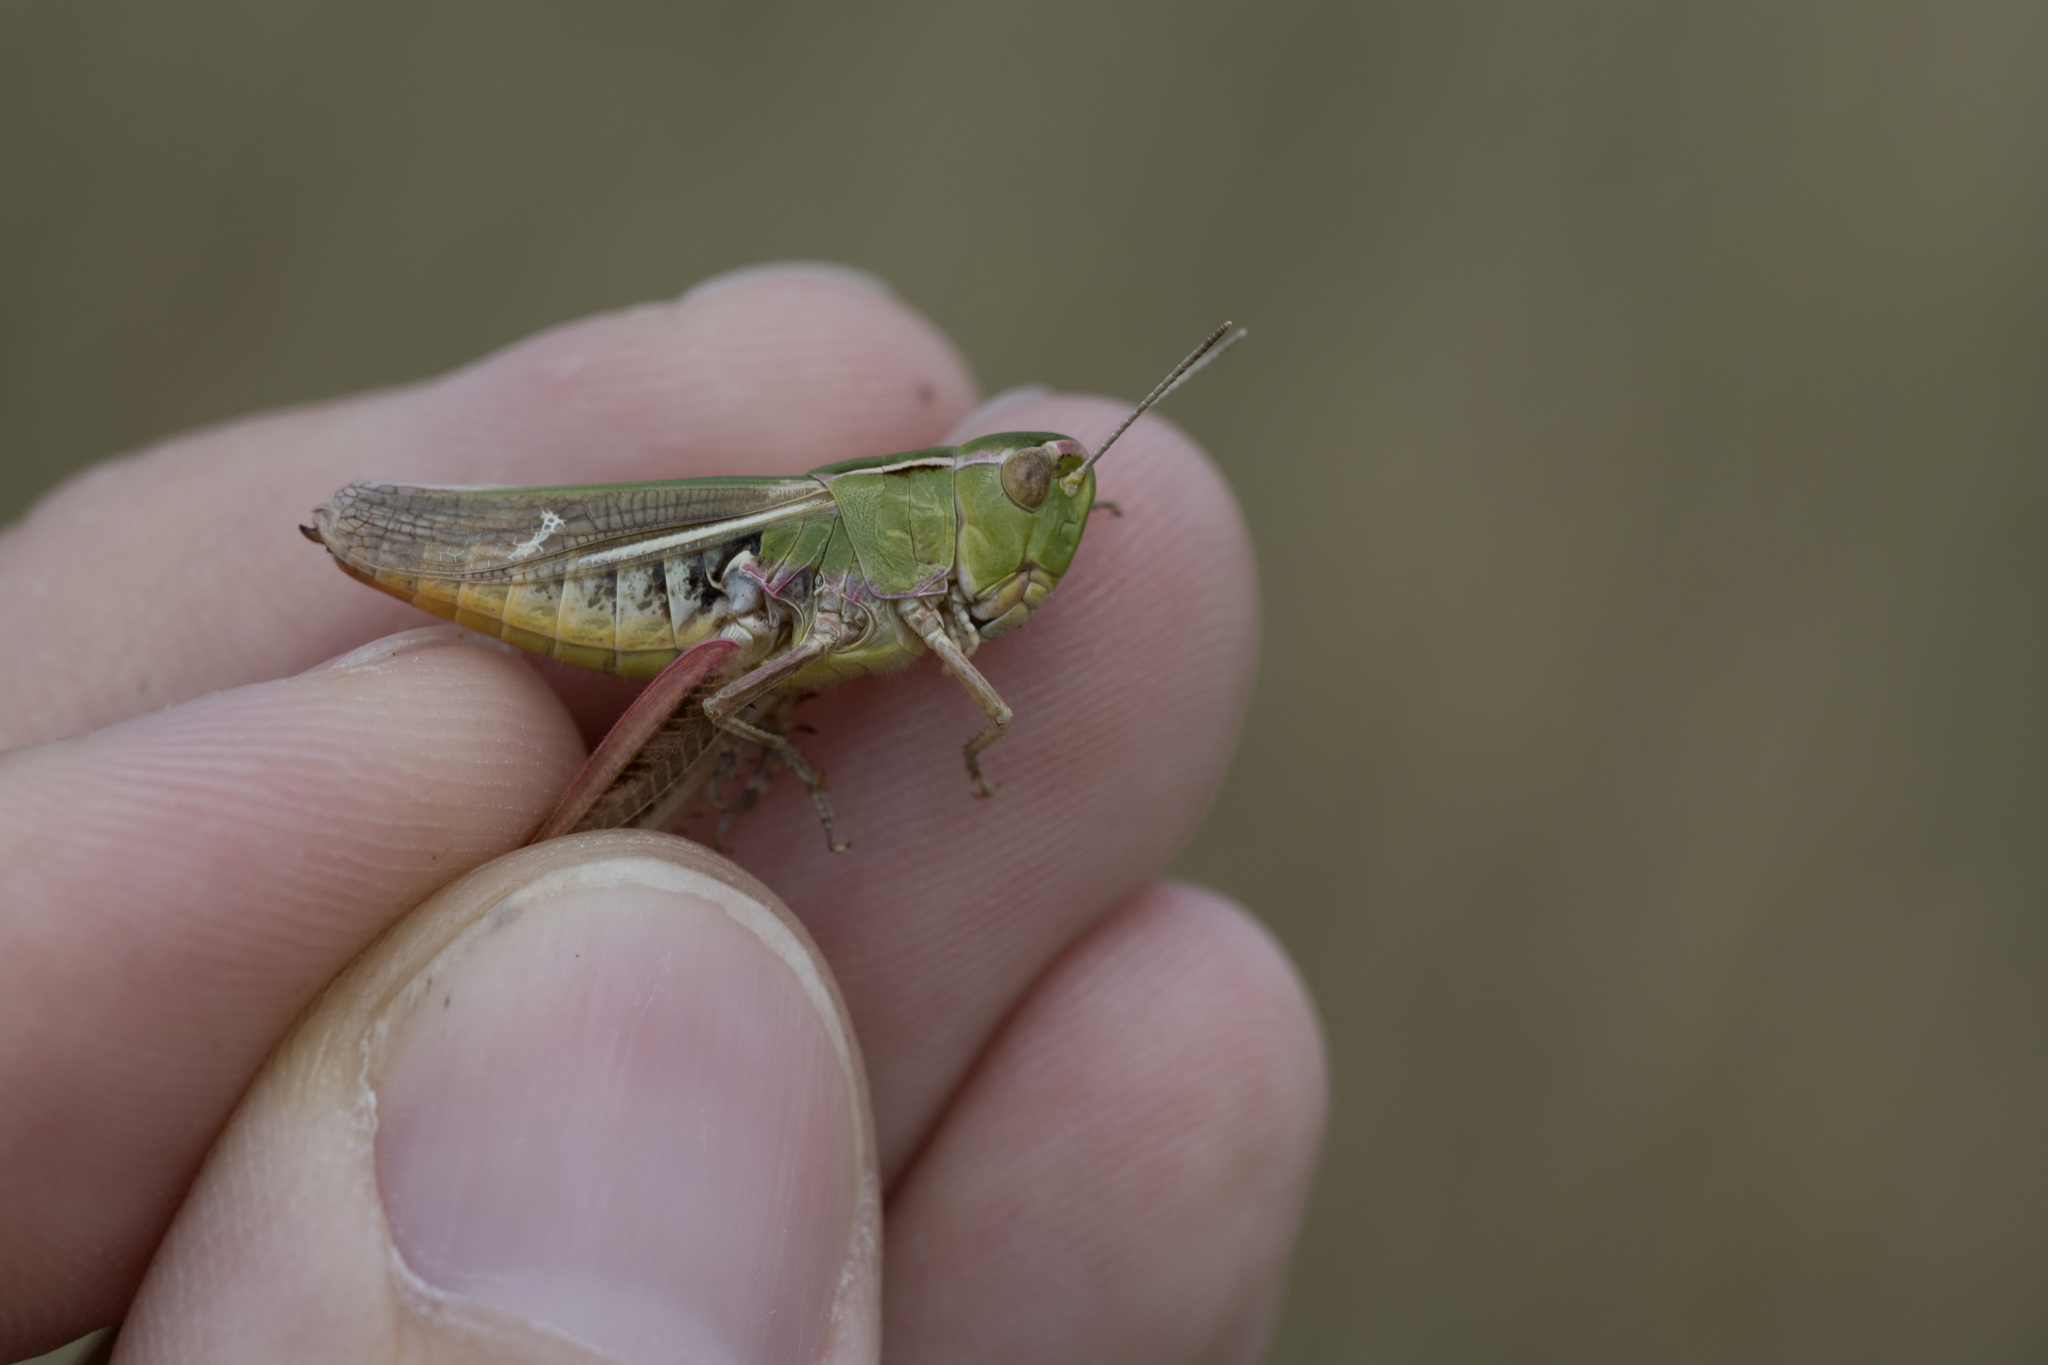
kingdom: Animalia
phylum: Arthropoda
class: Insecta
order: Orthoptera
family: Acrididae
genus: Stenobothrus
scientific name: Stenobothrus lineatus
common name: Stripe-winged grasshopper
